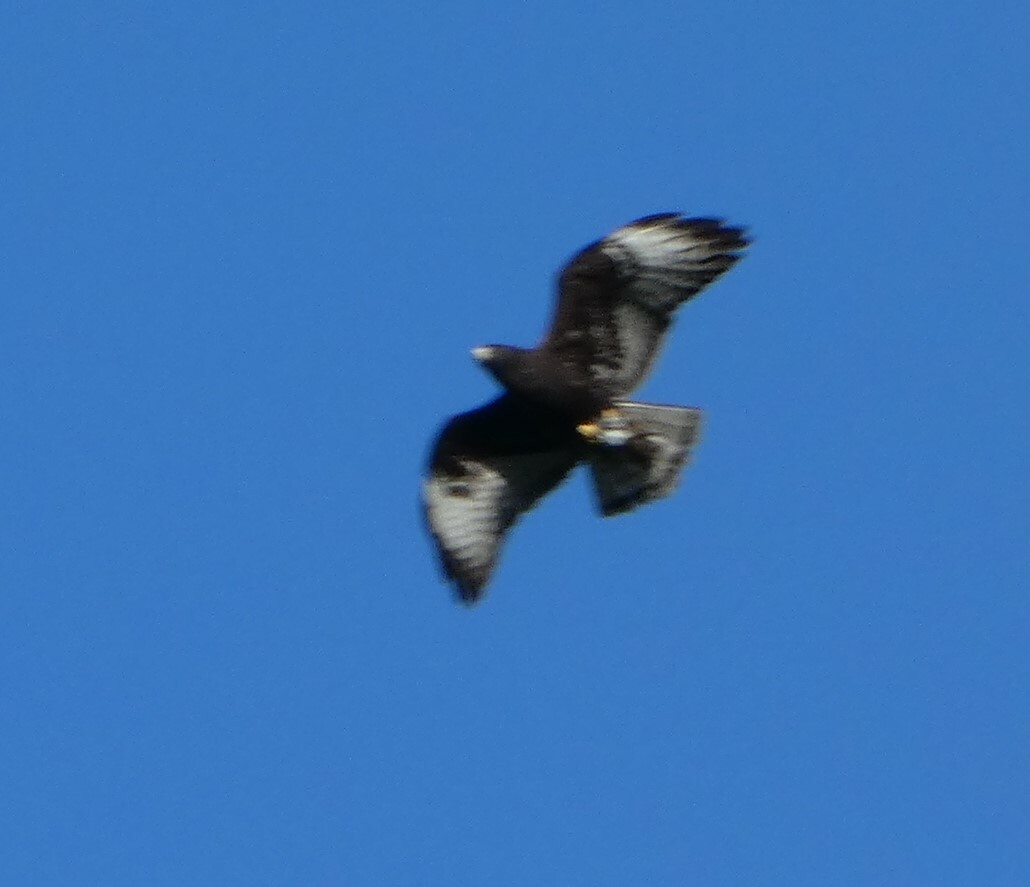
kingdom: Animalia
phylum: Chordata
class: Aves
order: Accipitriformes
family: Accipitridae
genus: Buteo
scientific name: Buteo brachyurus
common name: Short-tailed hawk
